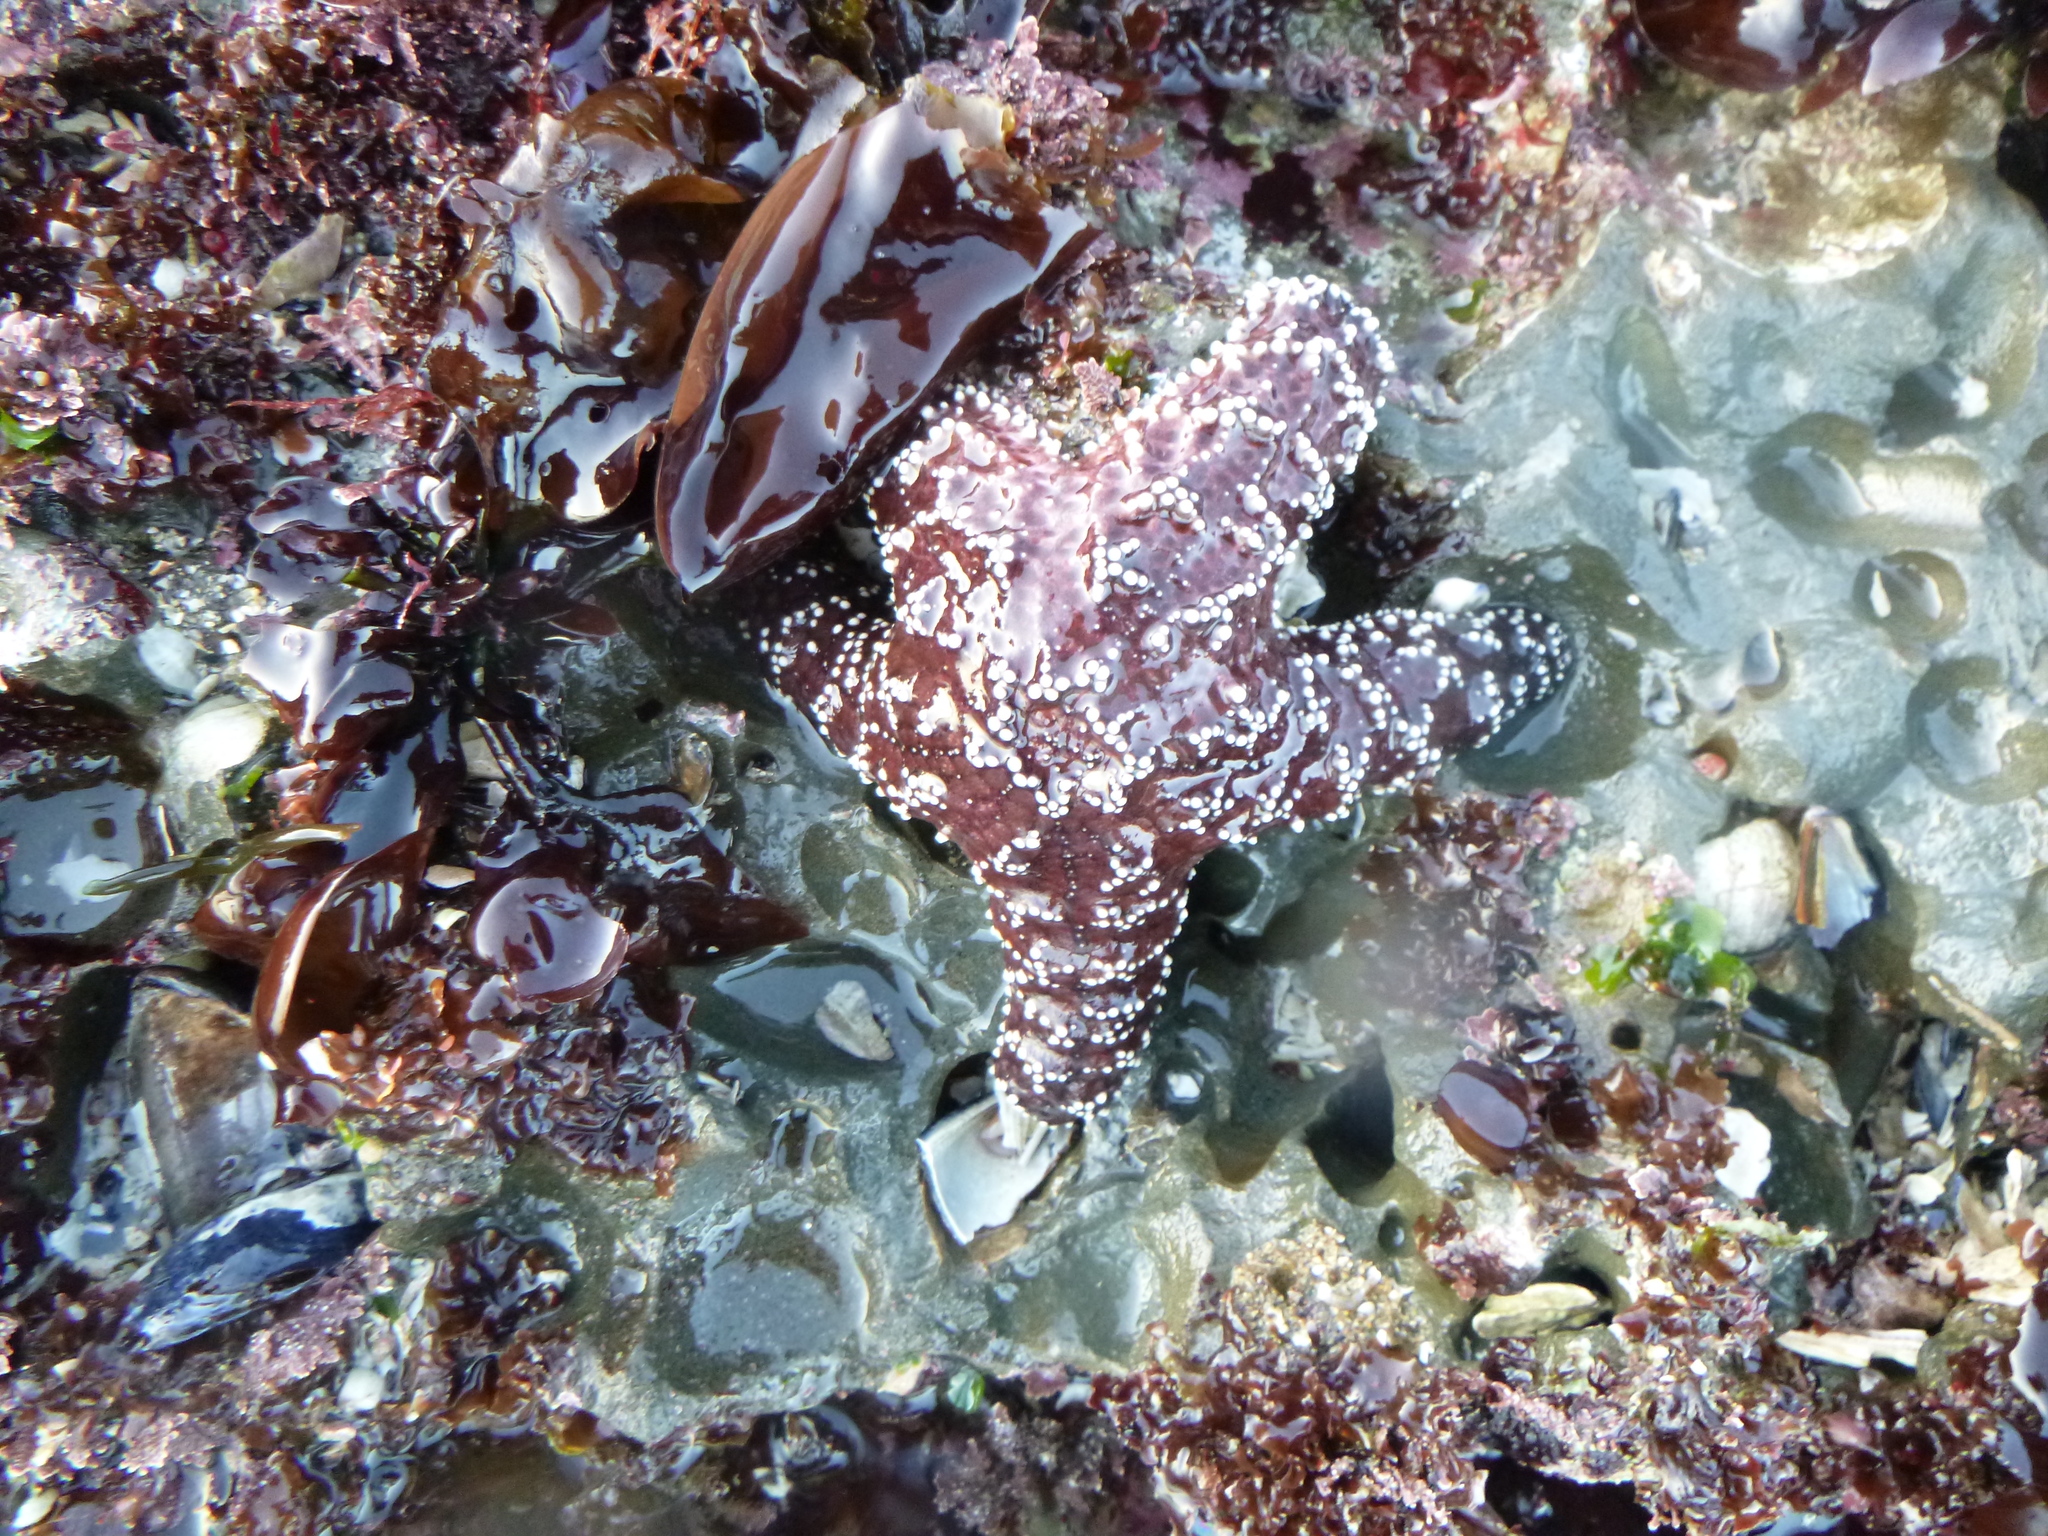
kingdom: Animalia
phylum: Echinodermata
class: Asteroidea
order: Forcipulatida
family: Asteriidae
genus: Pisaster
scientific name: Pisaster ochraceus
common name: Ochre stars
